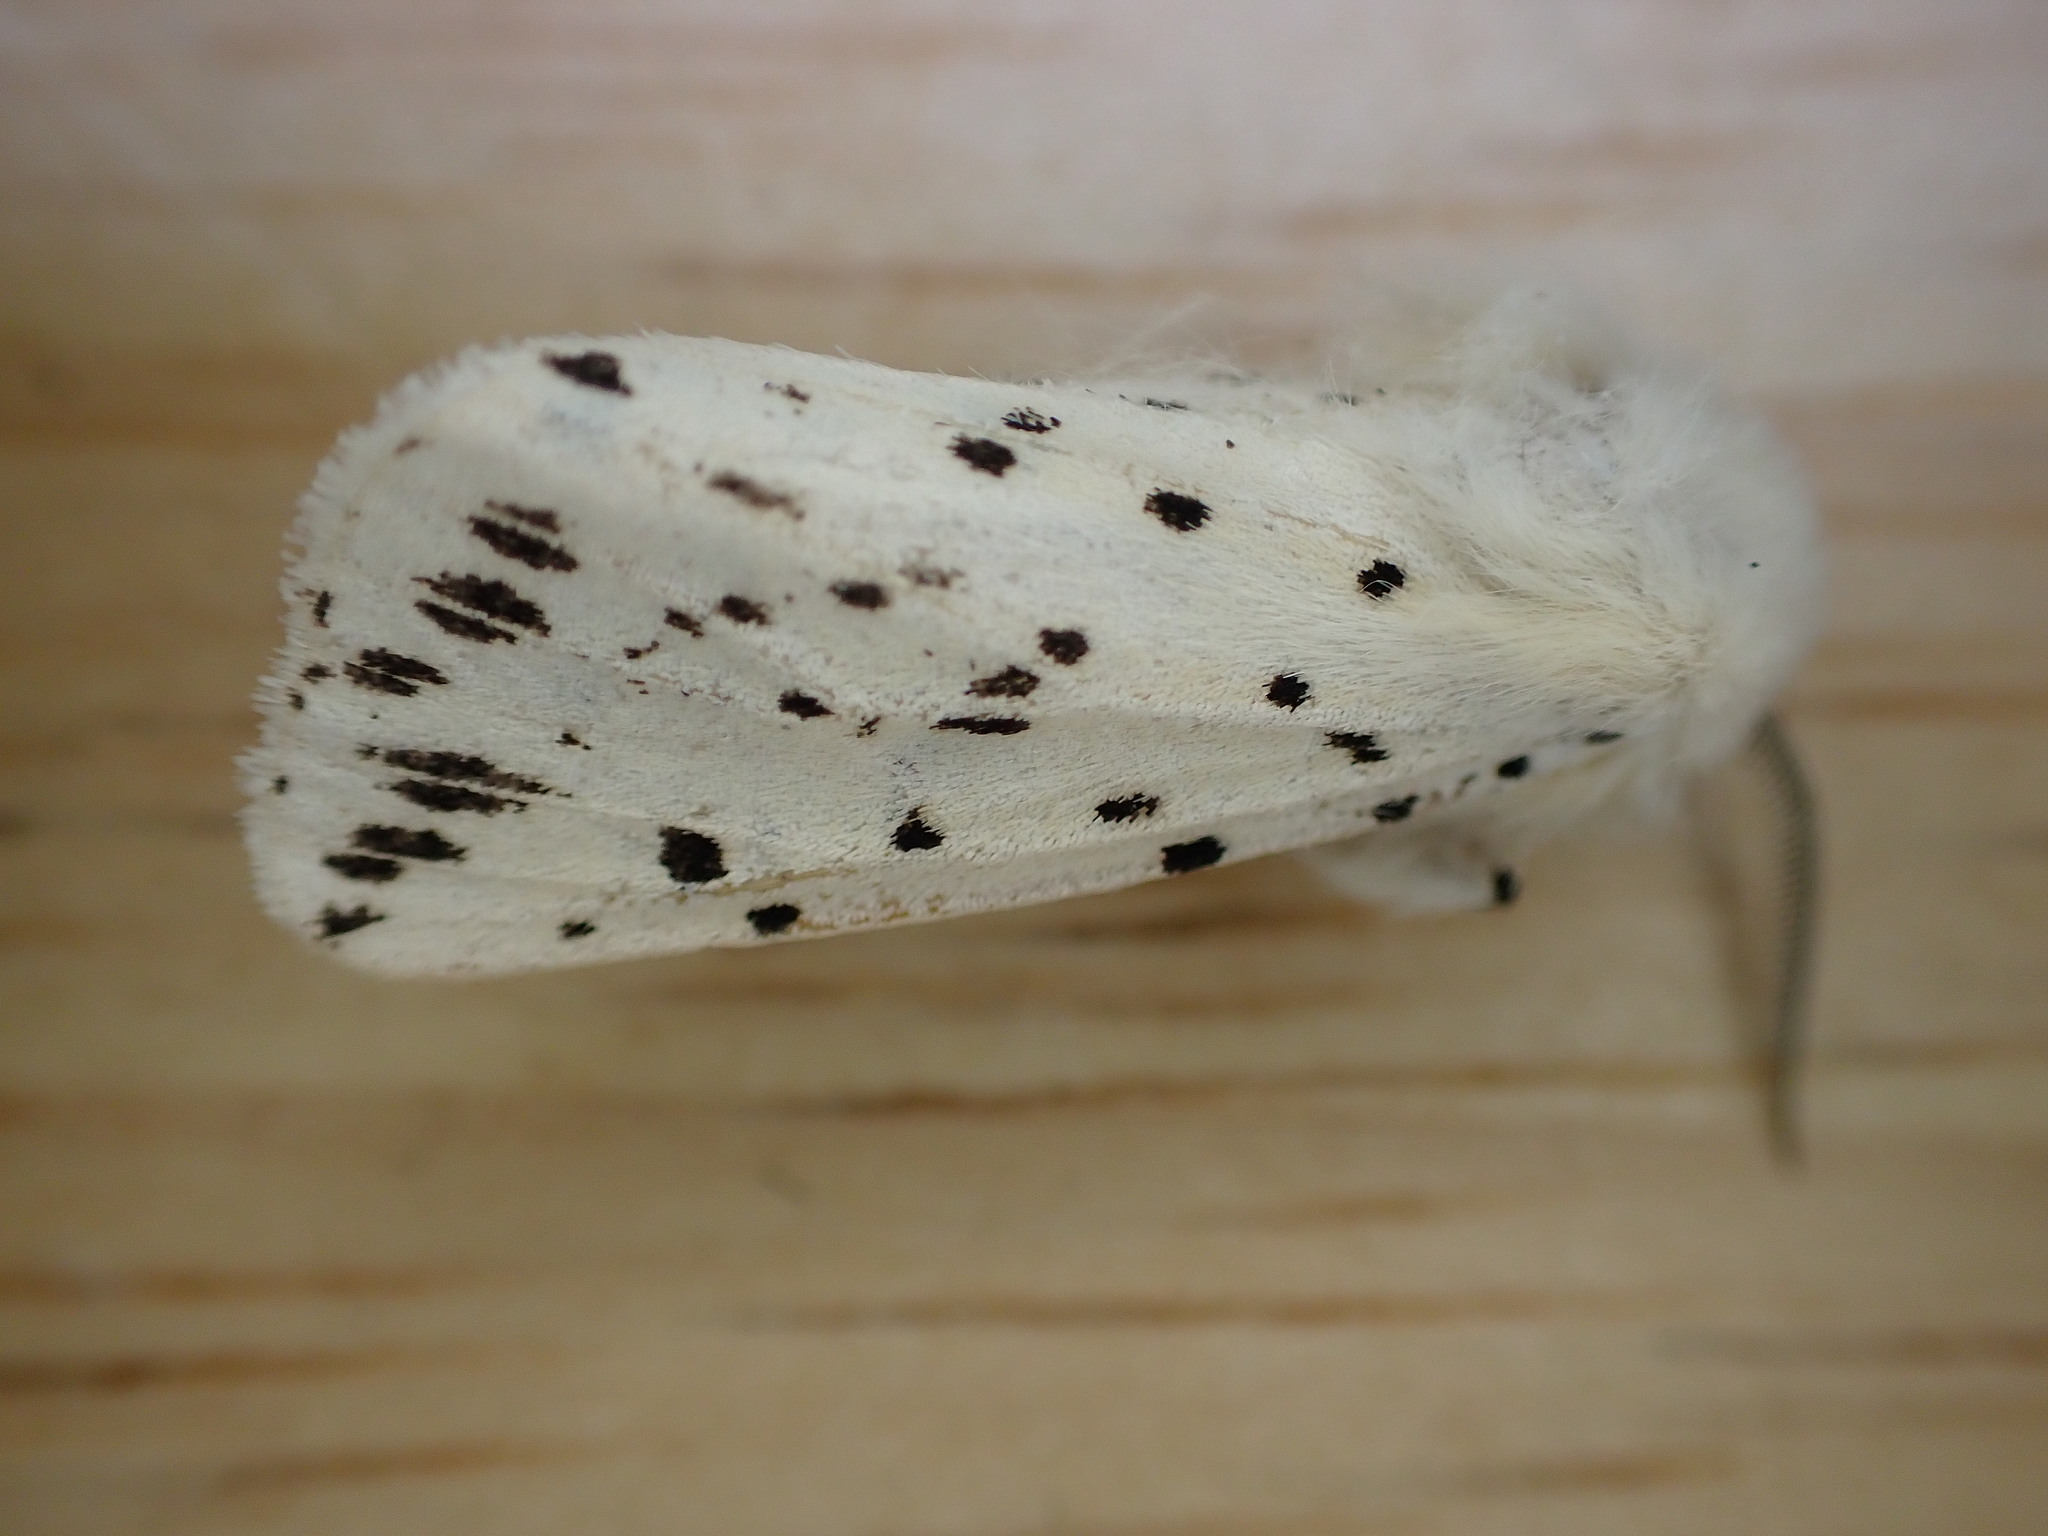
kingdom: Animalia
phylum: Arthropoda
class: Insecta
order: Lepidoptera
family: Erebidae
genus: Spilosoma
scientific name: Spilosoma lubricipeda
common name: White ermine
